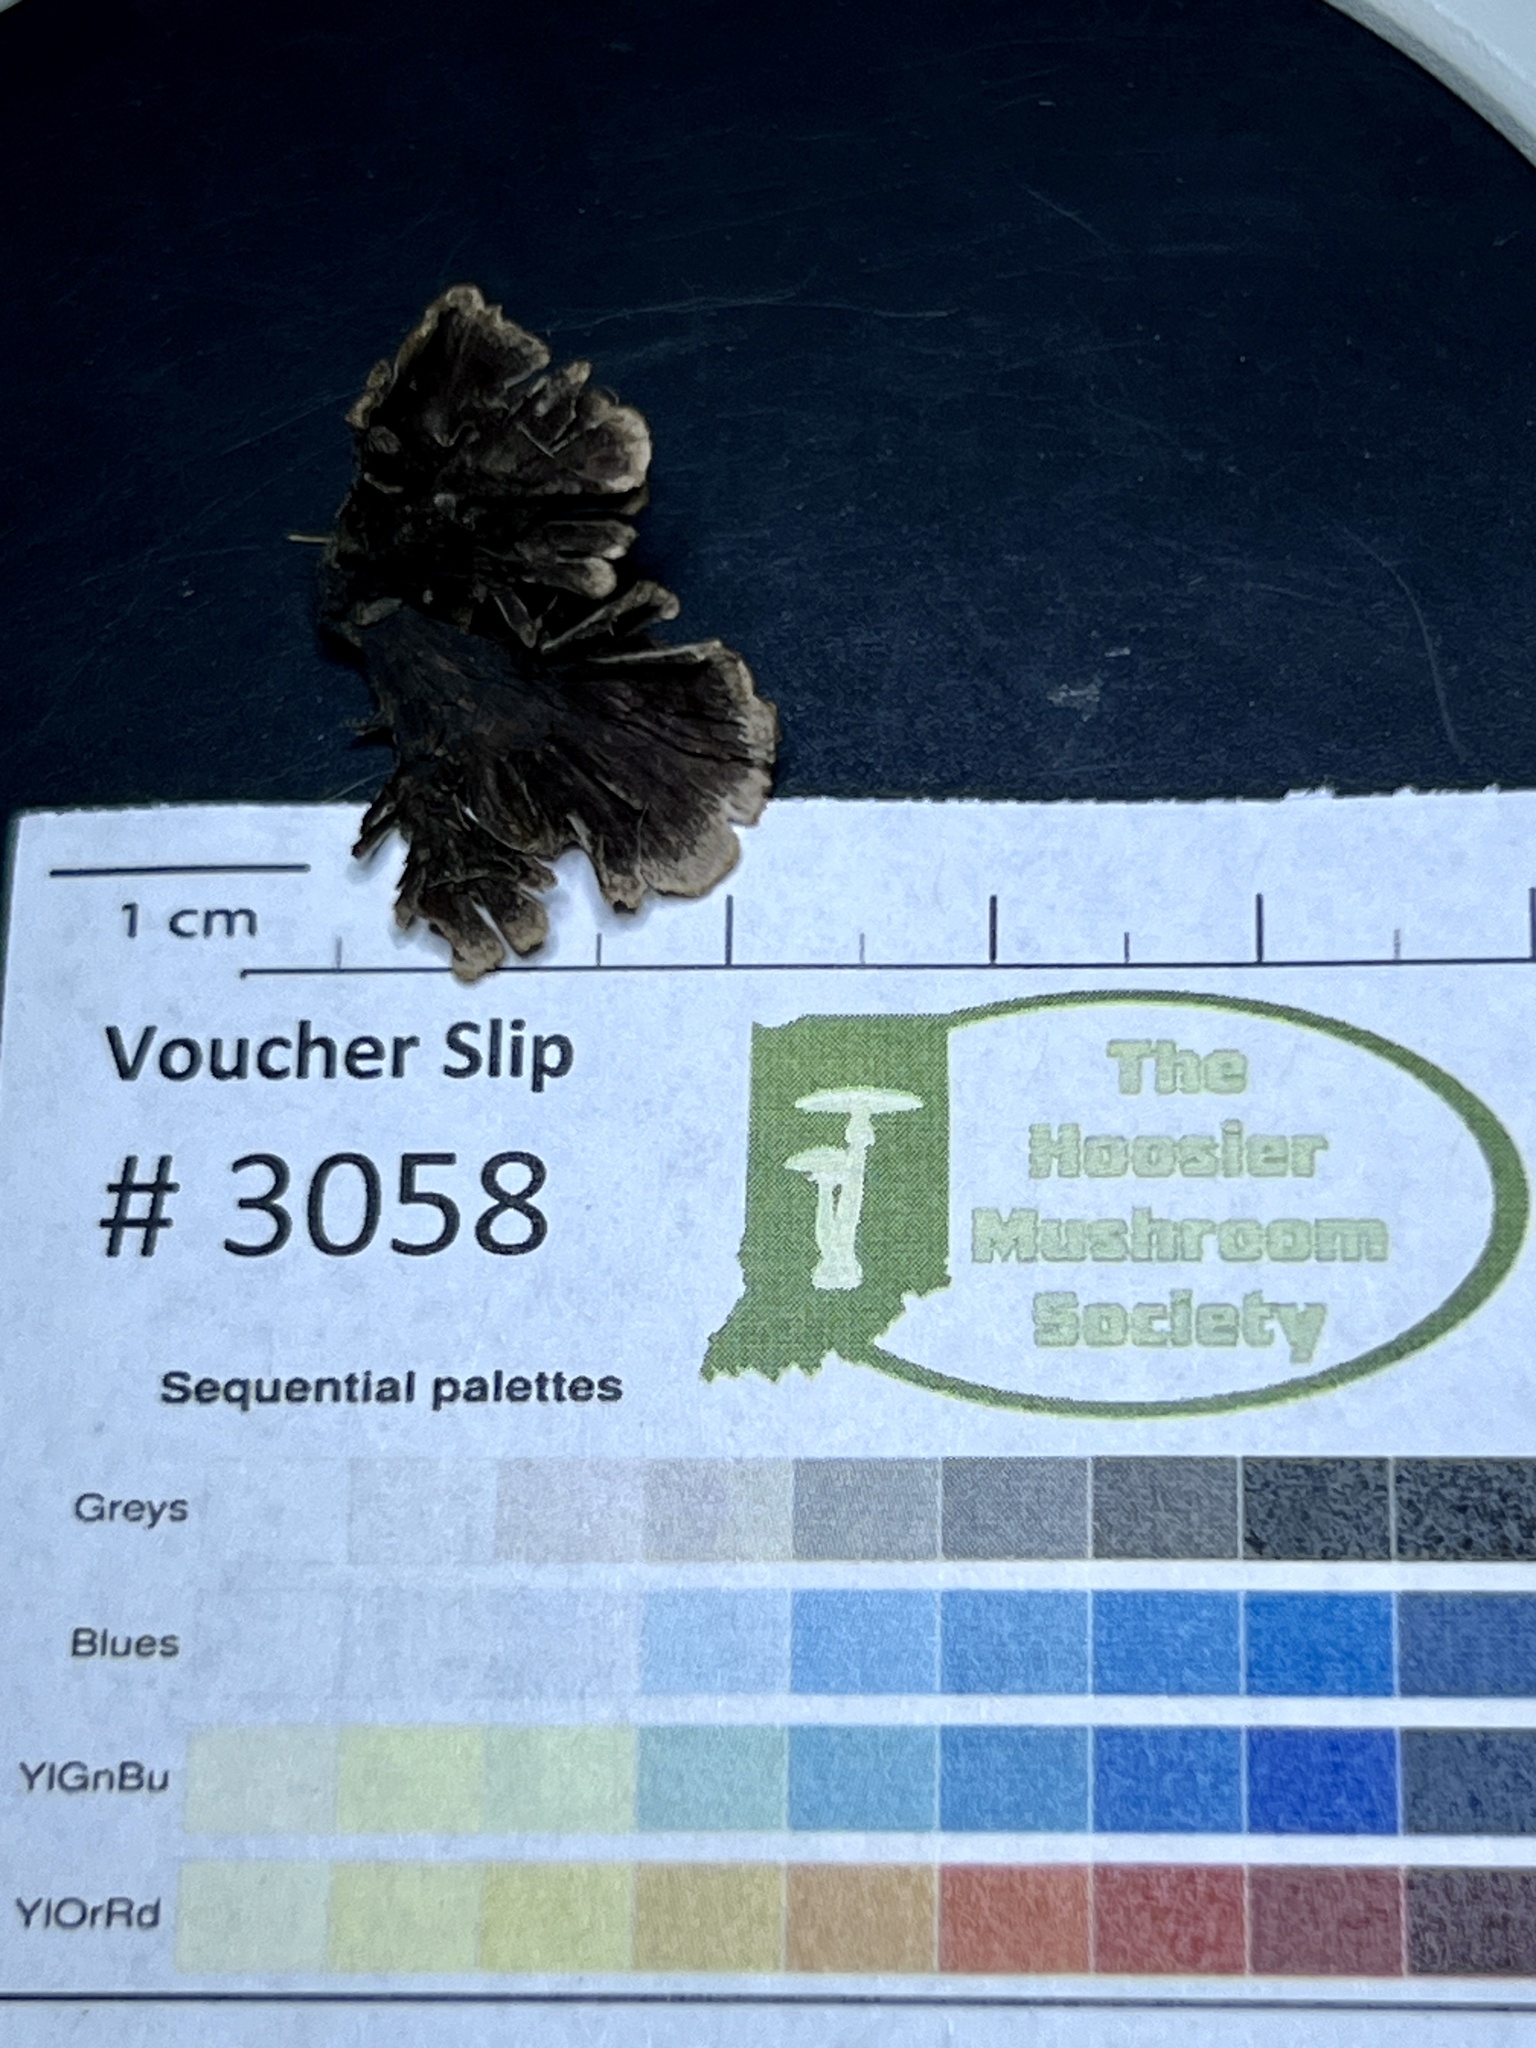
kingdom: Fungi
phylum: Basidiomycota
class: Agaricomycetes
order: Thelephorales
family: Thelephoraceae
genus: Thelephora
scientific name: Thelephora terrestris
